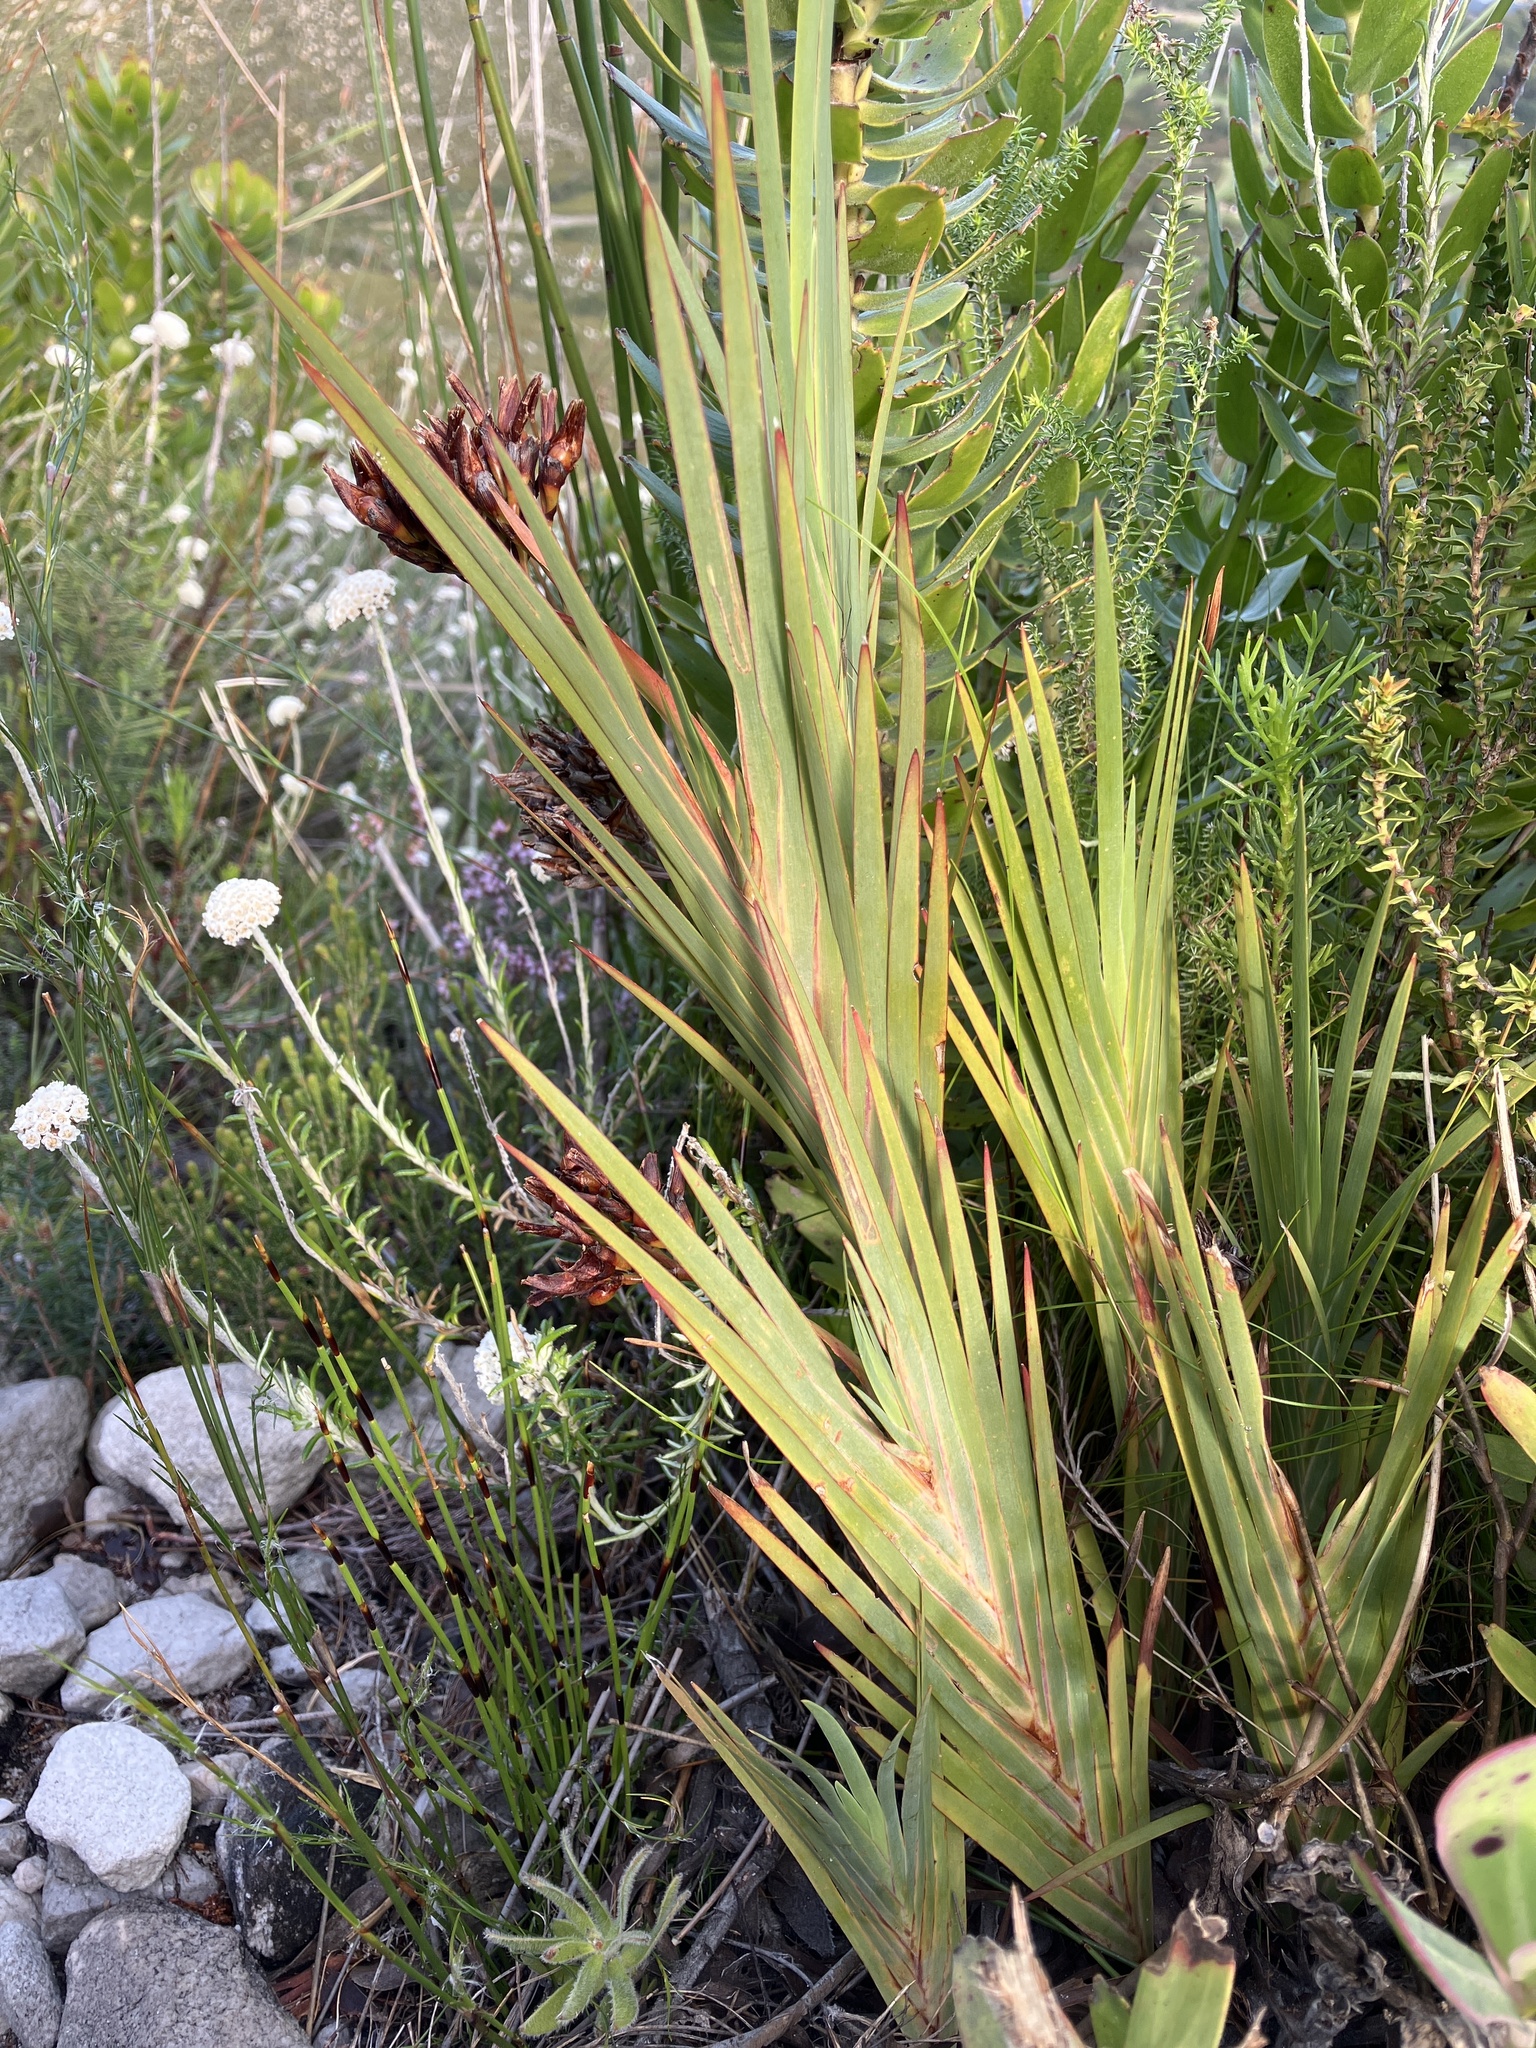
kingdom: Plantae
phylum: Tracheophyta
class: Liliopsida
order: Asparagales
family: Iridaceae
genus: Nivenia
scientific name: Nivenia stokoei
